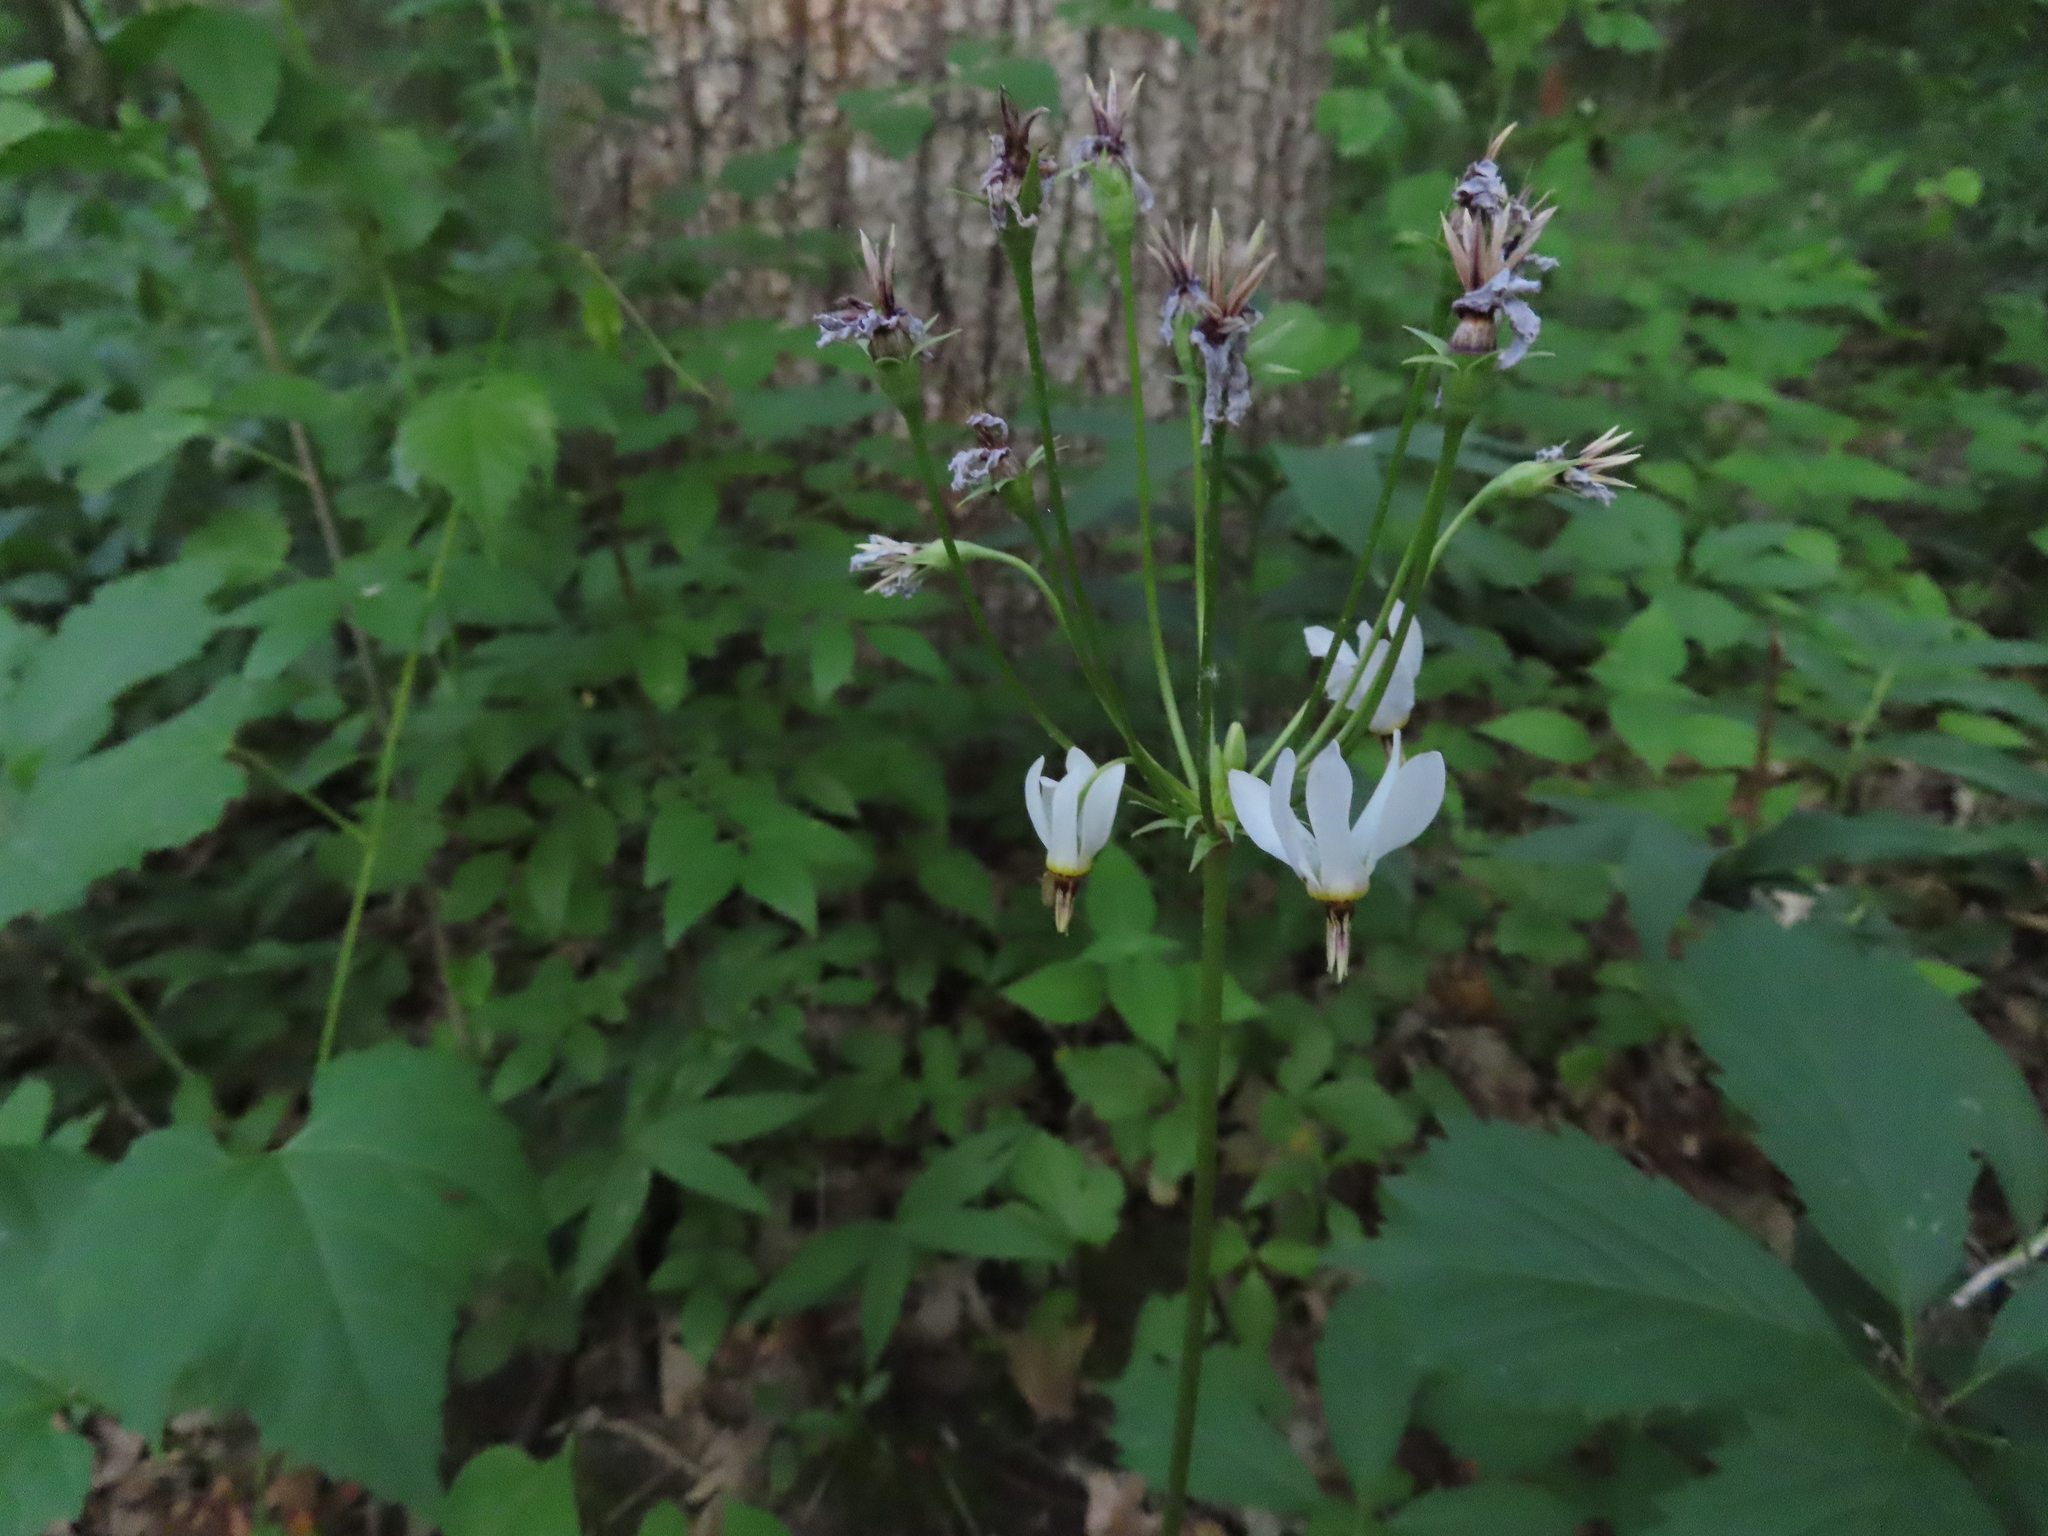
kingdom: Plantae
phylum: Tracheophyta
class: Magnoliopsida
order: Ericales
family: Primulaceae
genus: Dodecatheon
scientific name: Dodecatheon meadia
